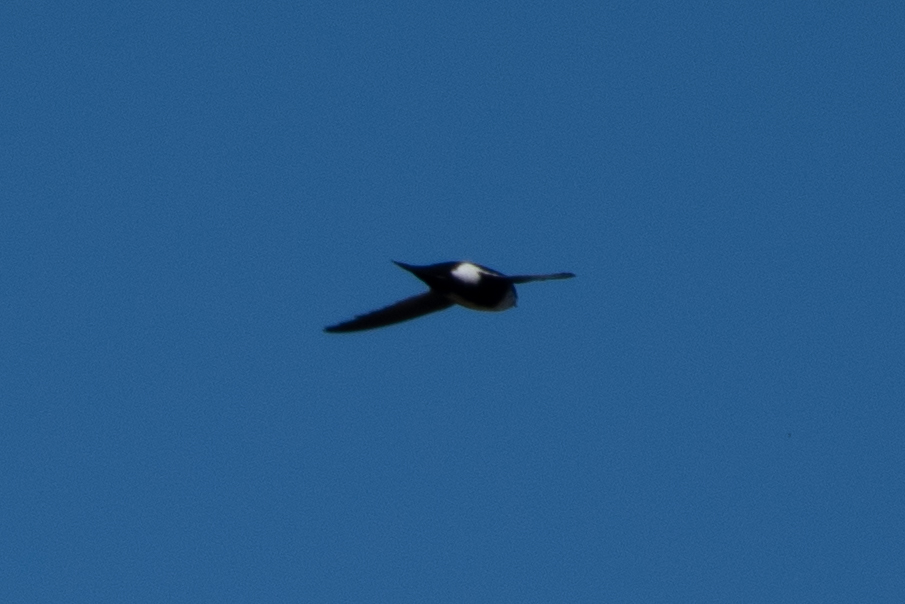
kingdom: Animalia
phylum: Chordata
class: Aves
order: Apodiformes
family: Apodidae
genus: Aeronautes
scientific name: Aeronautes saxatalis
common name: White-throated swift
